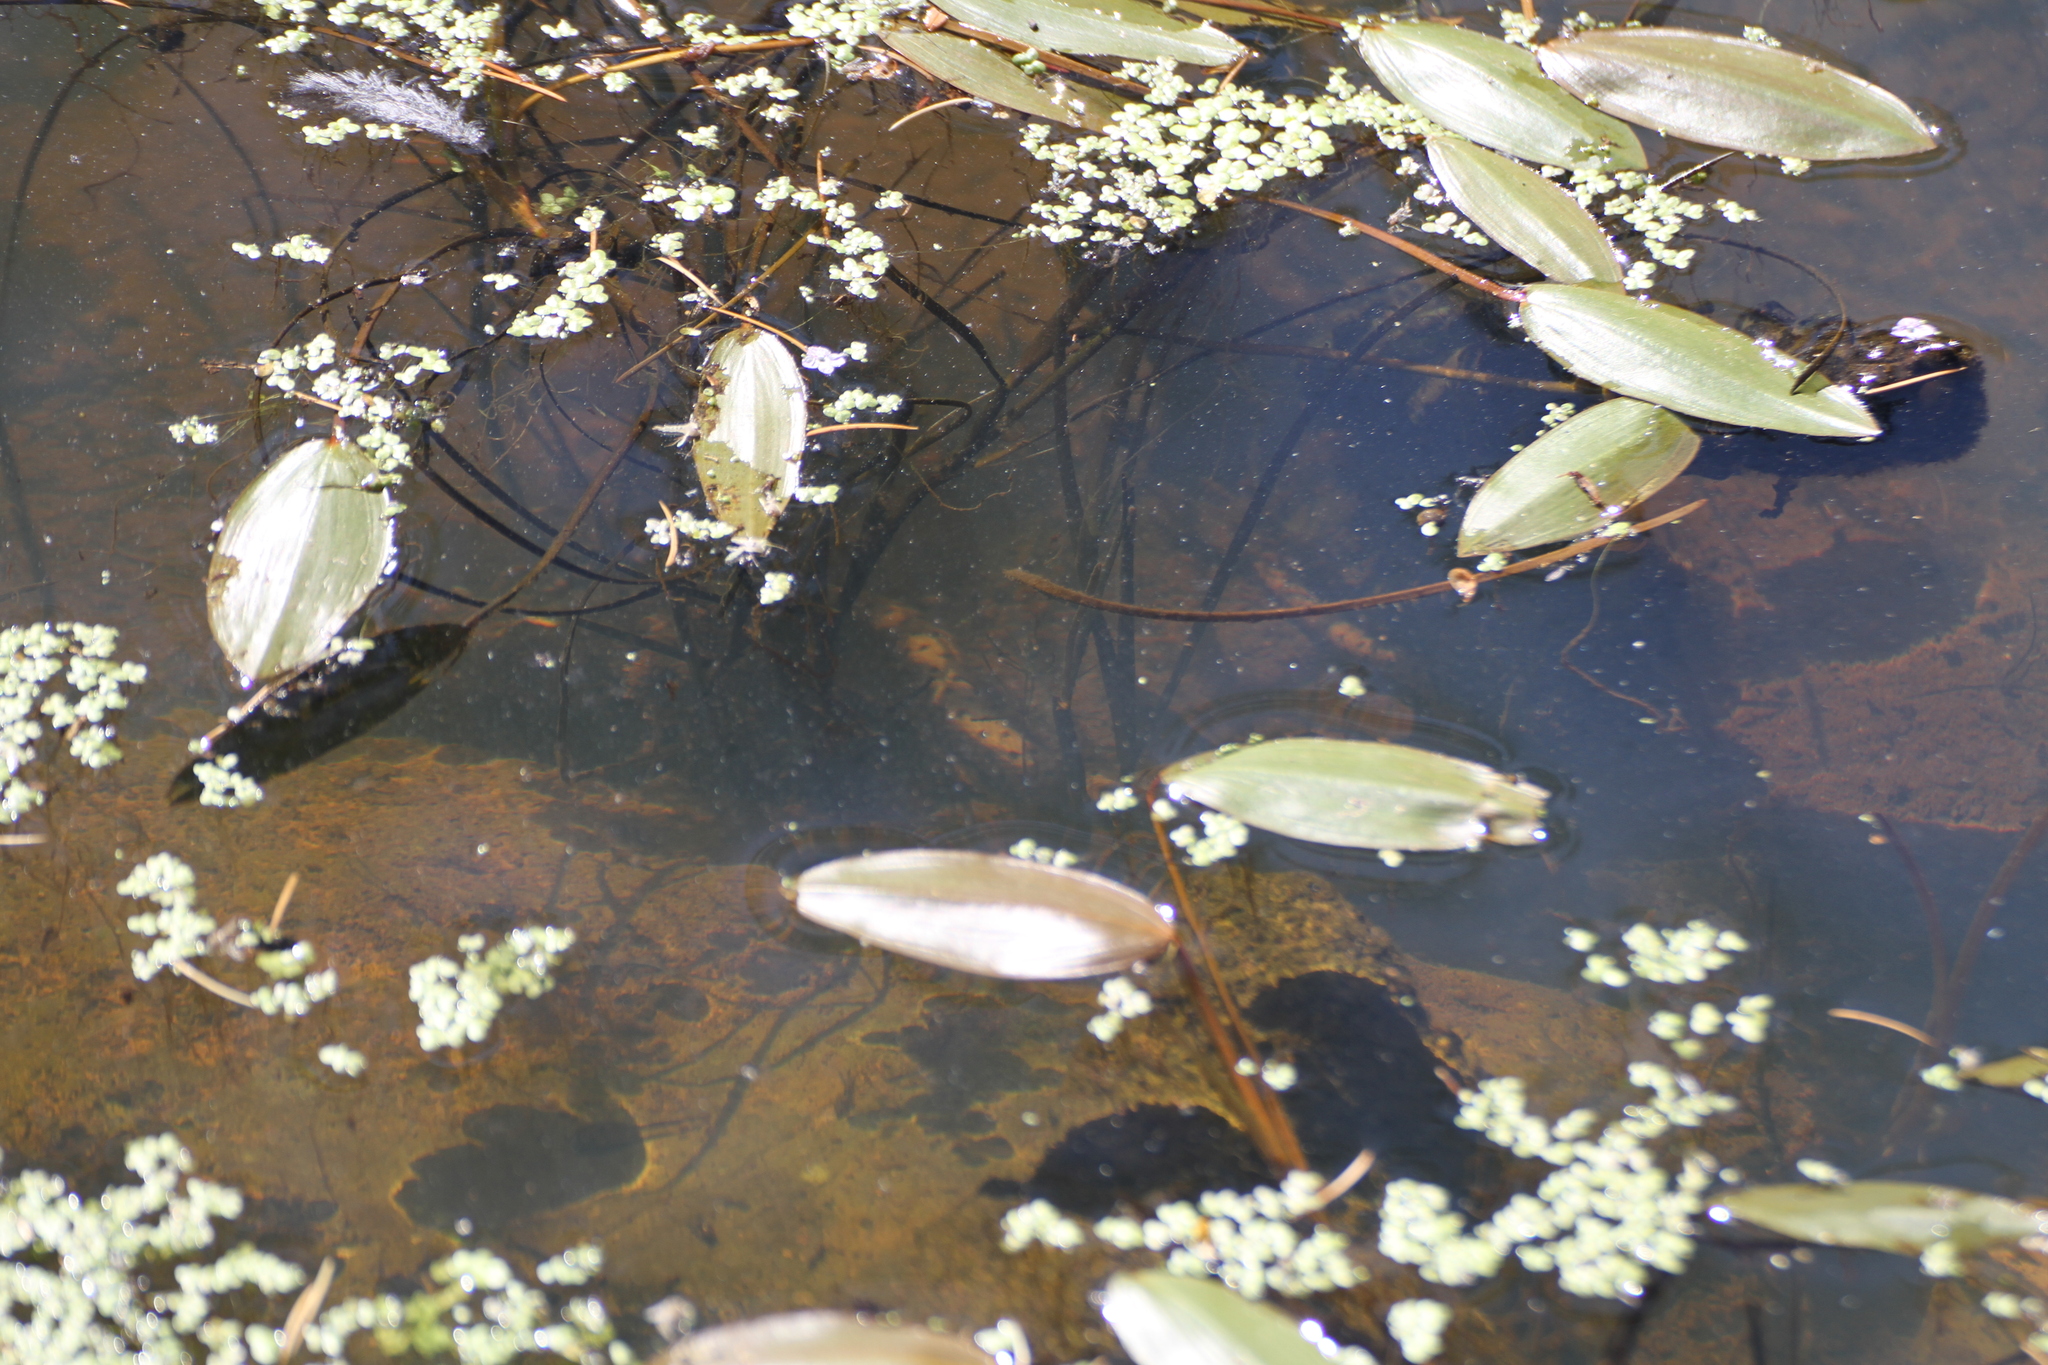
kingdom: Animalia
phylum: Chordata
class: Squamata
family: Colubridae
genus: Natrix
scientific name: Natrix helvetica
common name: Banded grass snake
